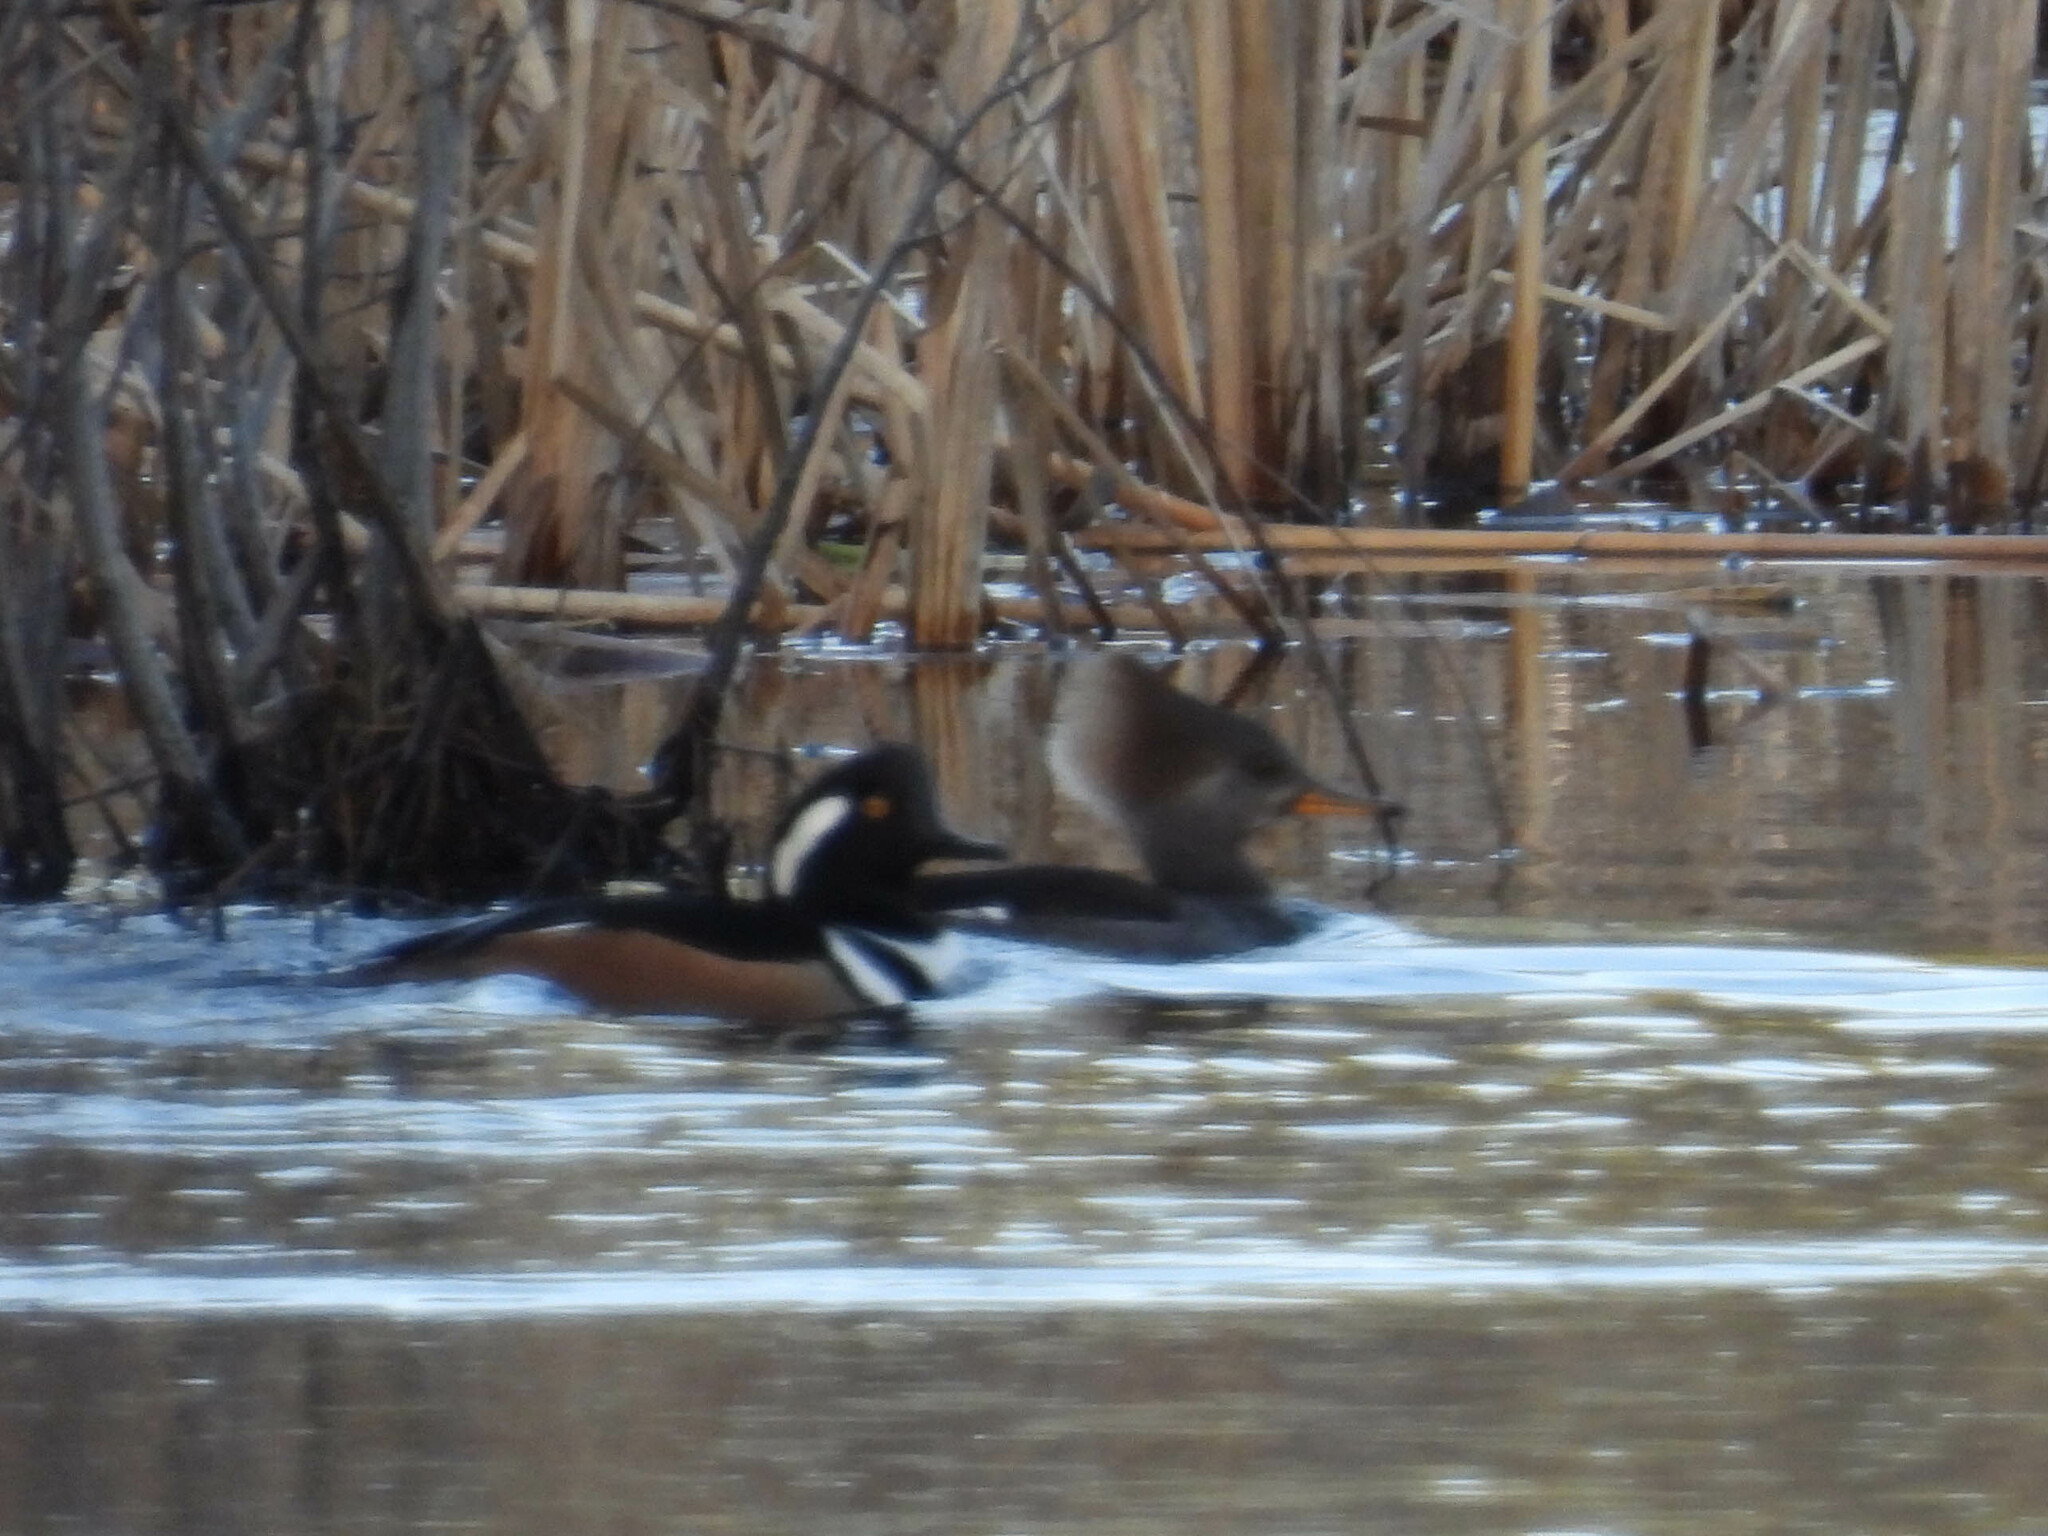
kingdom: Animalia
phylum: Chordata
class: Aves
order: Anseriformes
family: Anatidae
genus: Lophodytes
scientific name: Lophodytes cucullatus
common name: Hooded merganser
